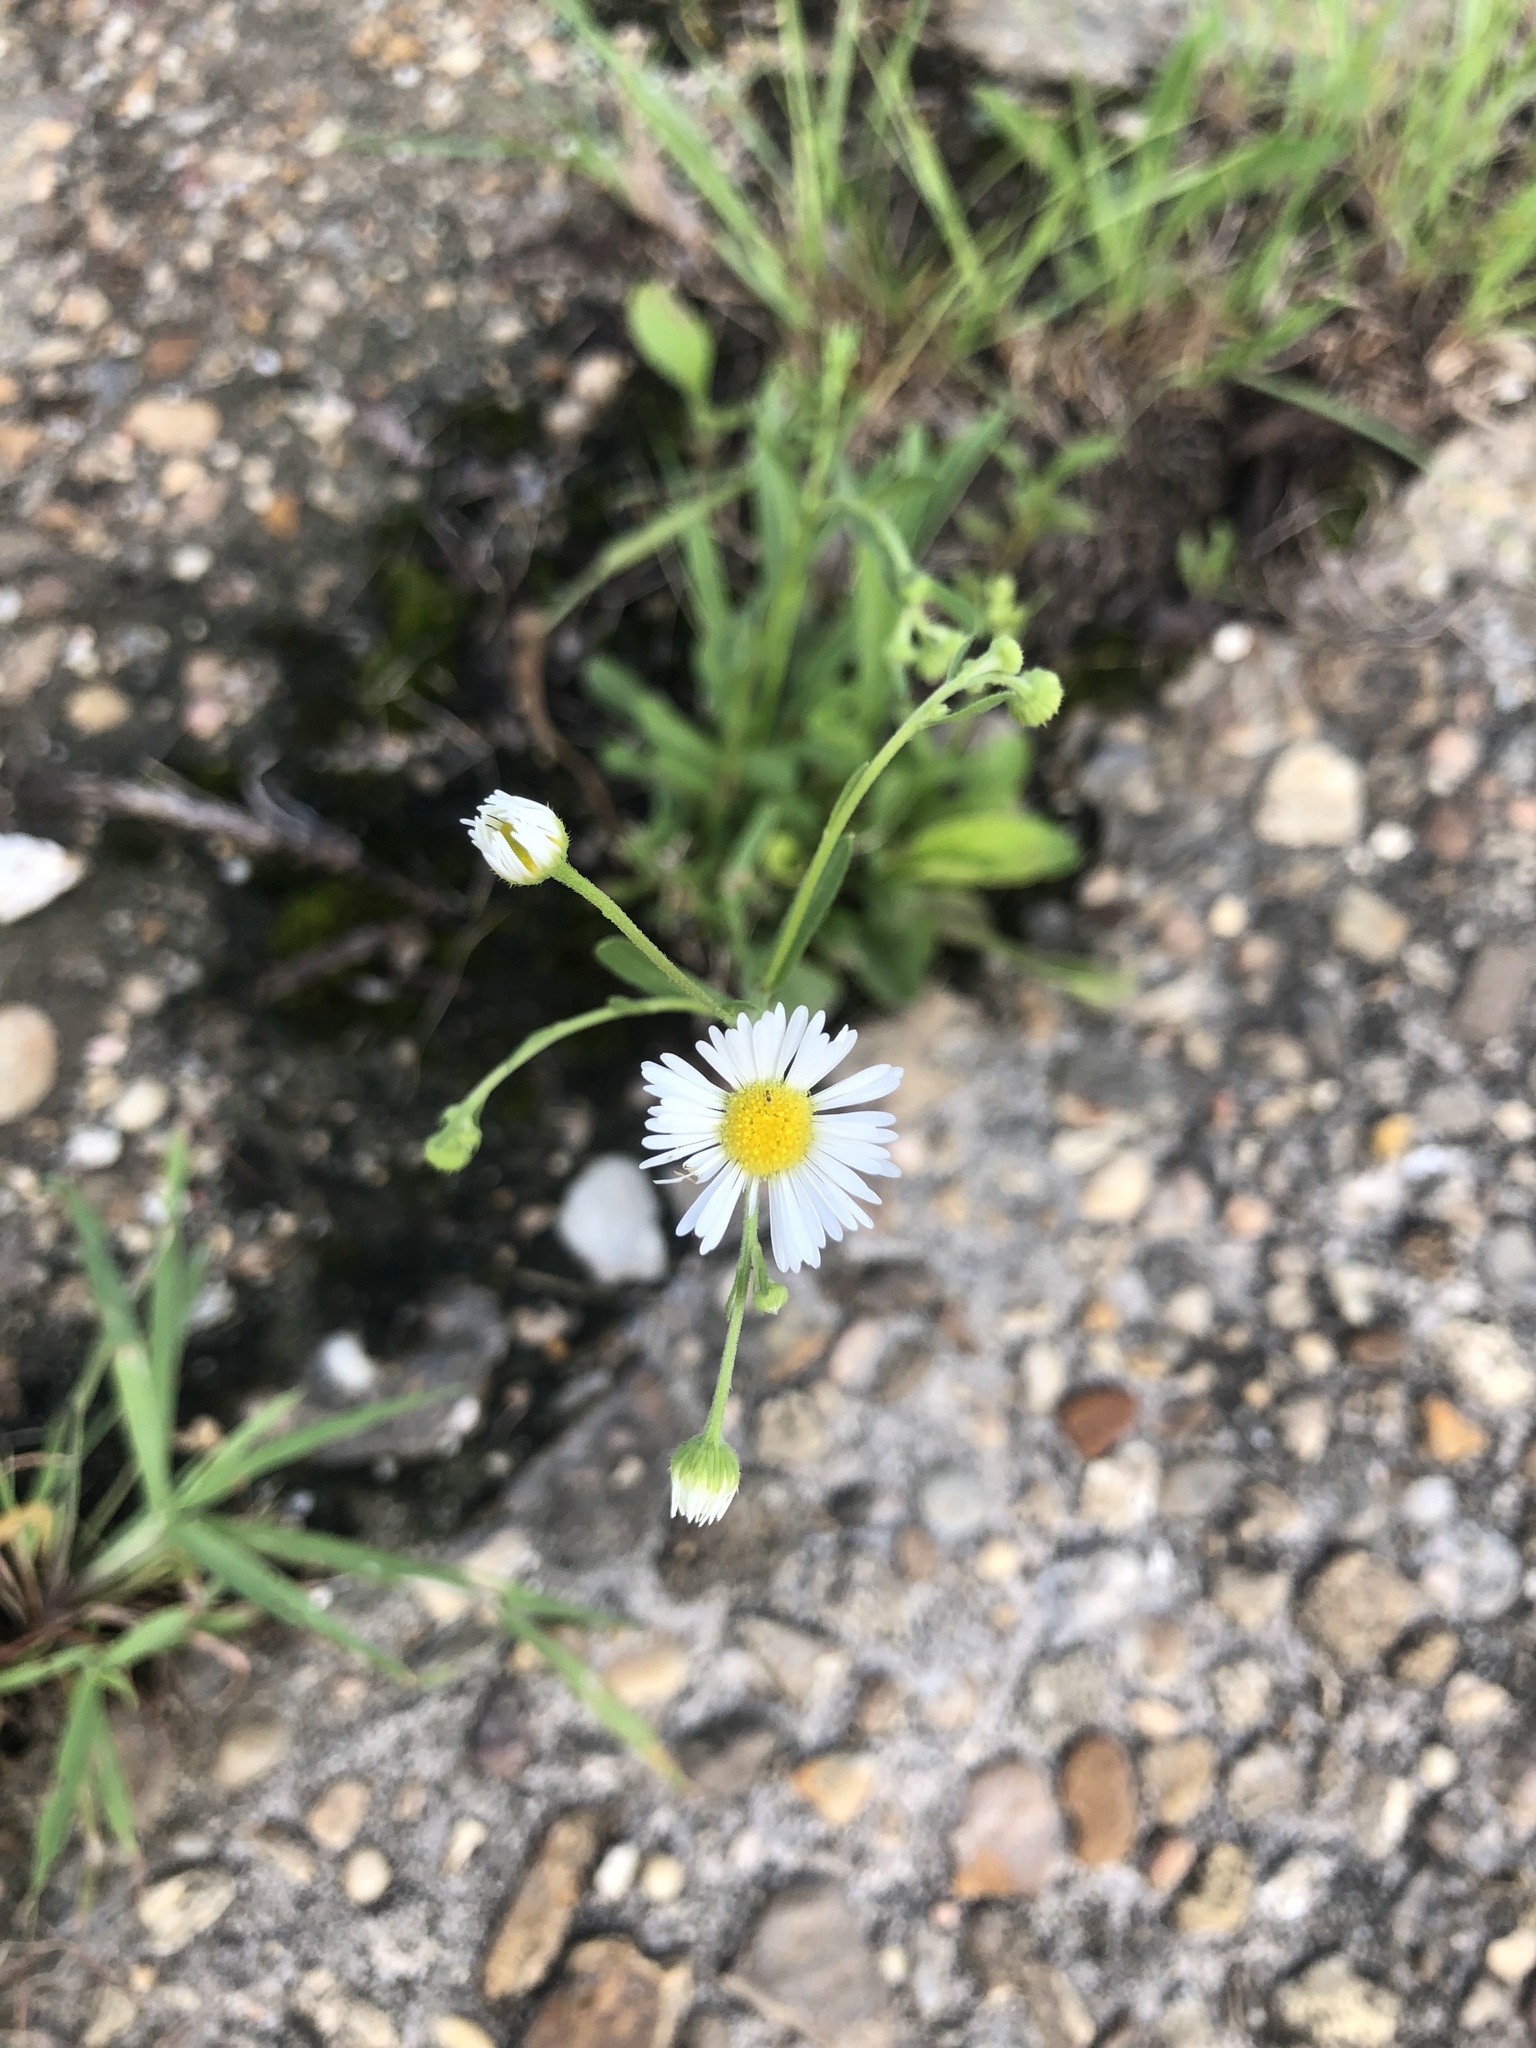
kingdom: Plantae
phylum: Tracheophyta
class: Magnoliopsida
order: Asterales
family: Asteraceae
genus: Erigeron
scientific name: Erigeron strigosus
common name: Common eastern fleabane
